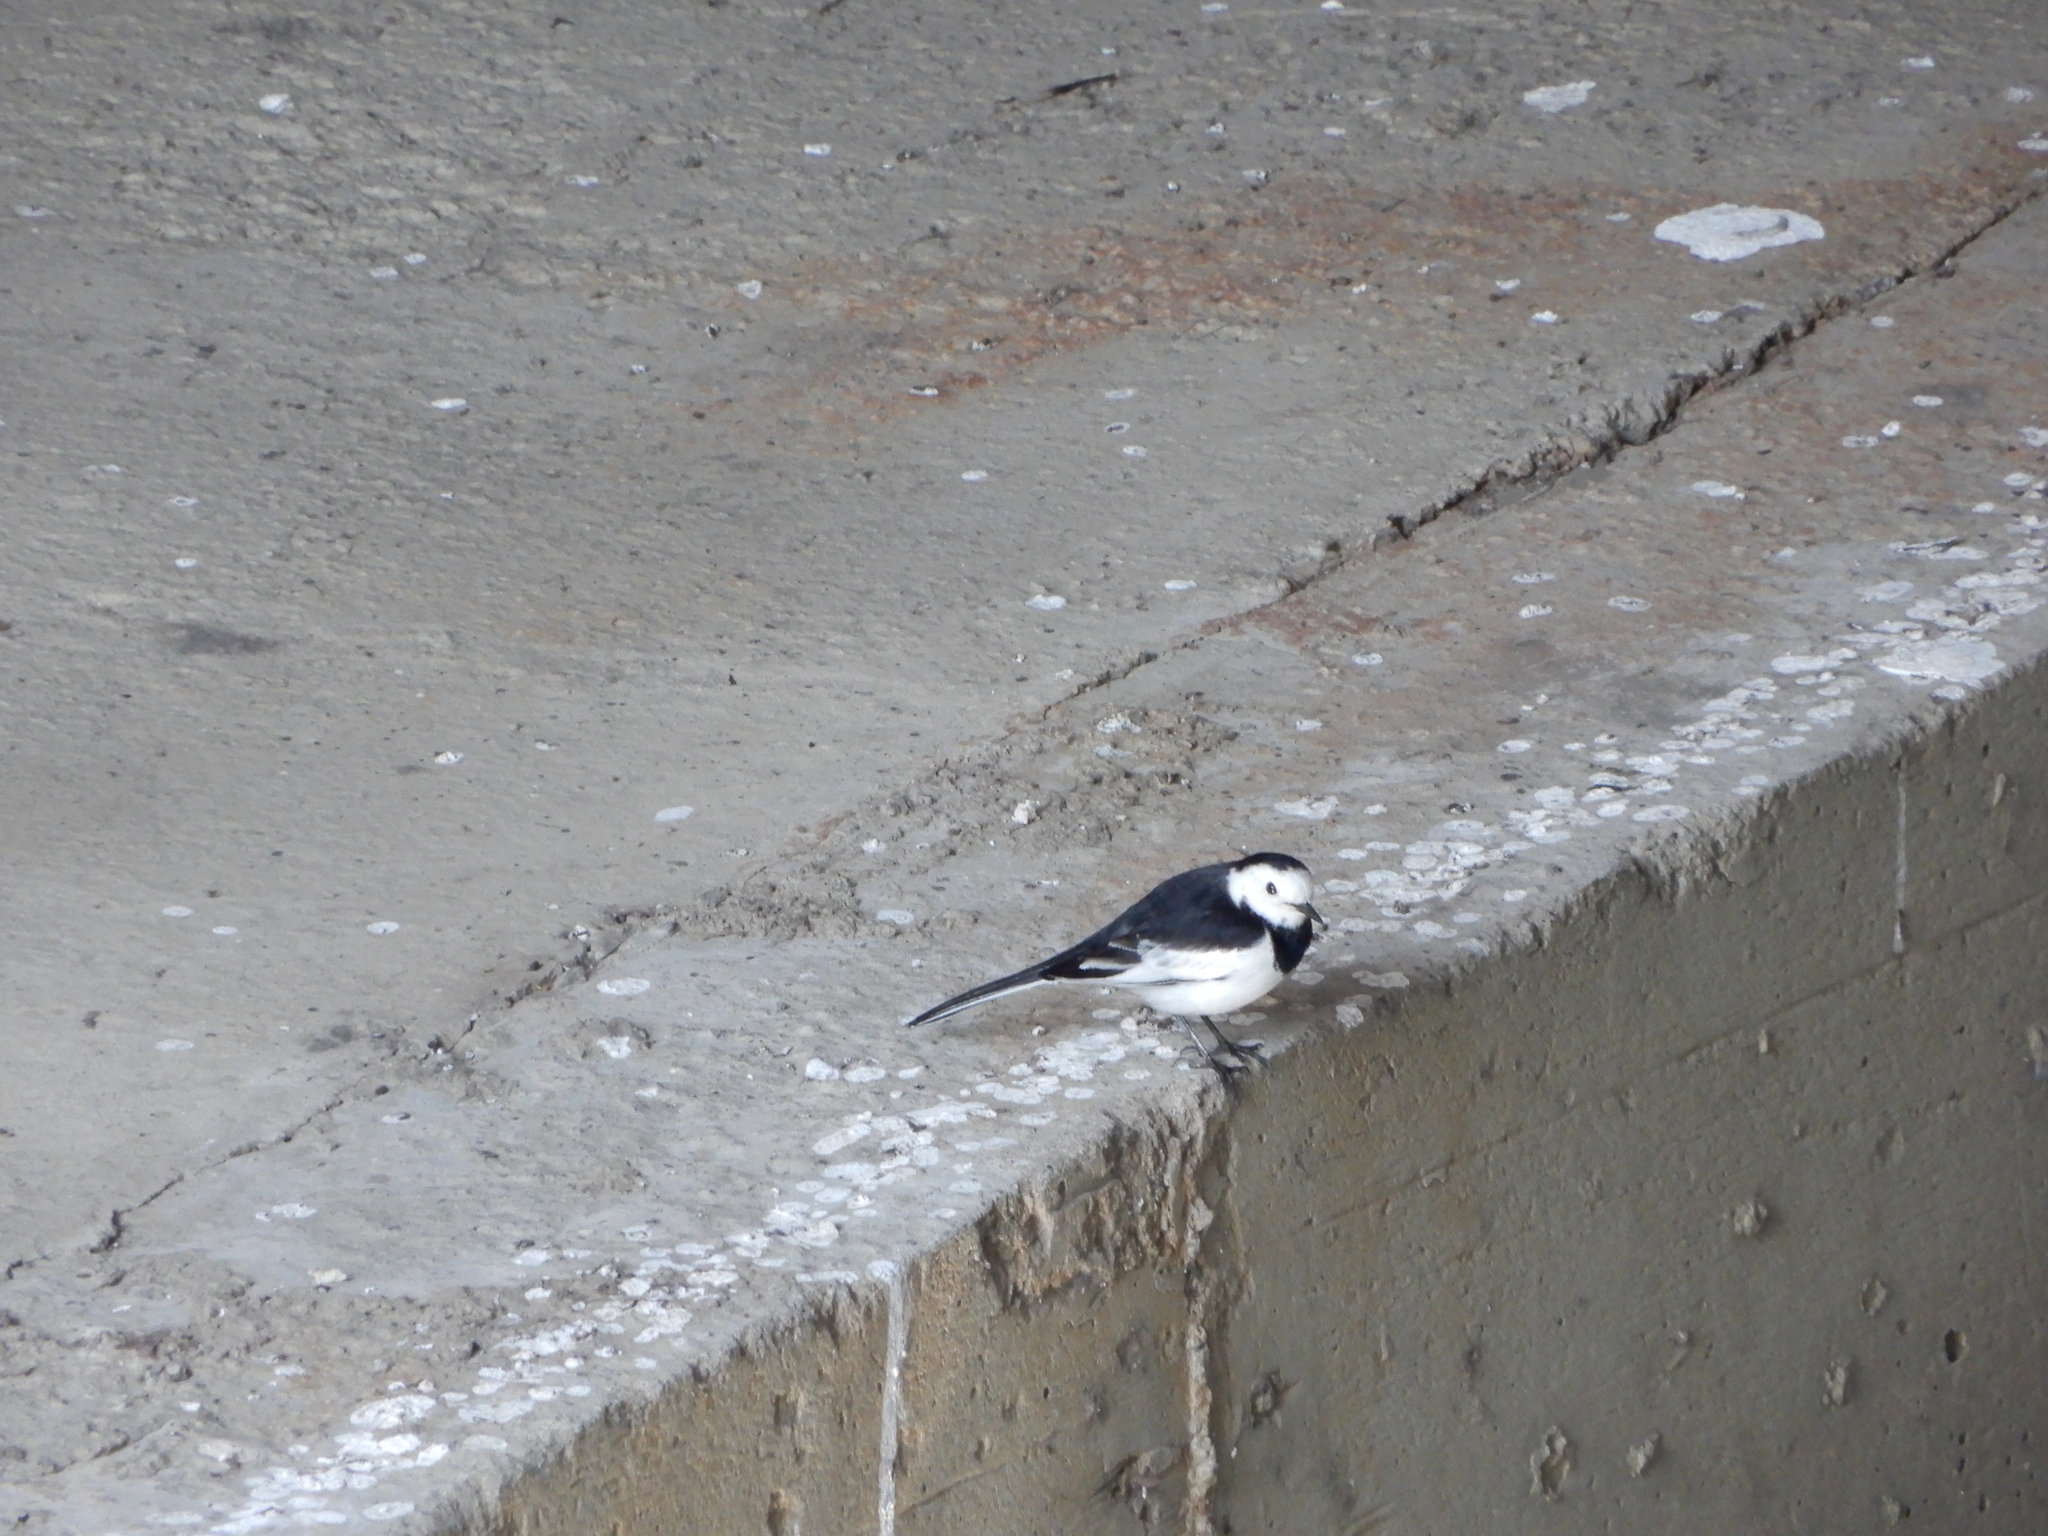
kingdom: Animalia
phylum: Chordata
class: Aves
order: Passeriformes
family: Motacillidae
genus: Motacilla
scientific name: Motacilla alba
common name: White wagtail
